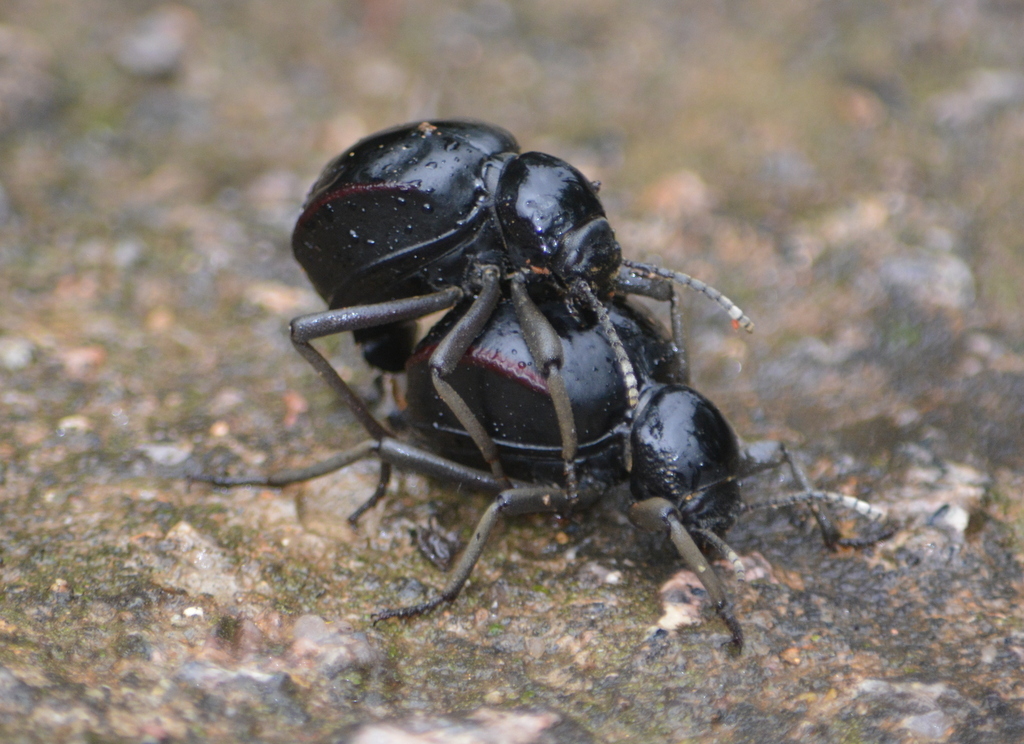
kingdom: Animalia
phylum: Arthropoda
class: Insecta
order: Coleoptera
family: Tenebrionidae
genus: Dichtha
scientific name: Dichtha cubica
